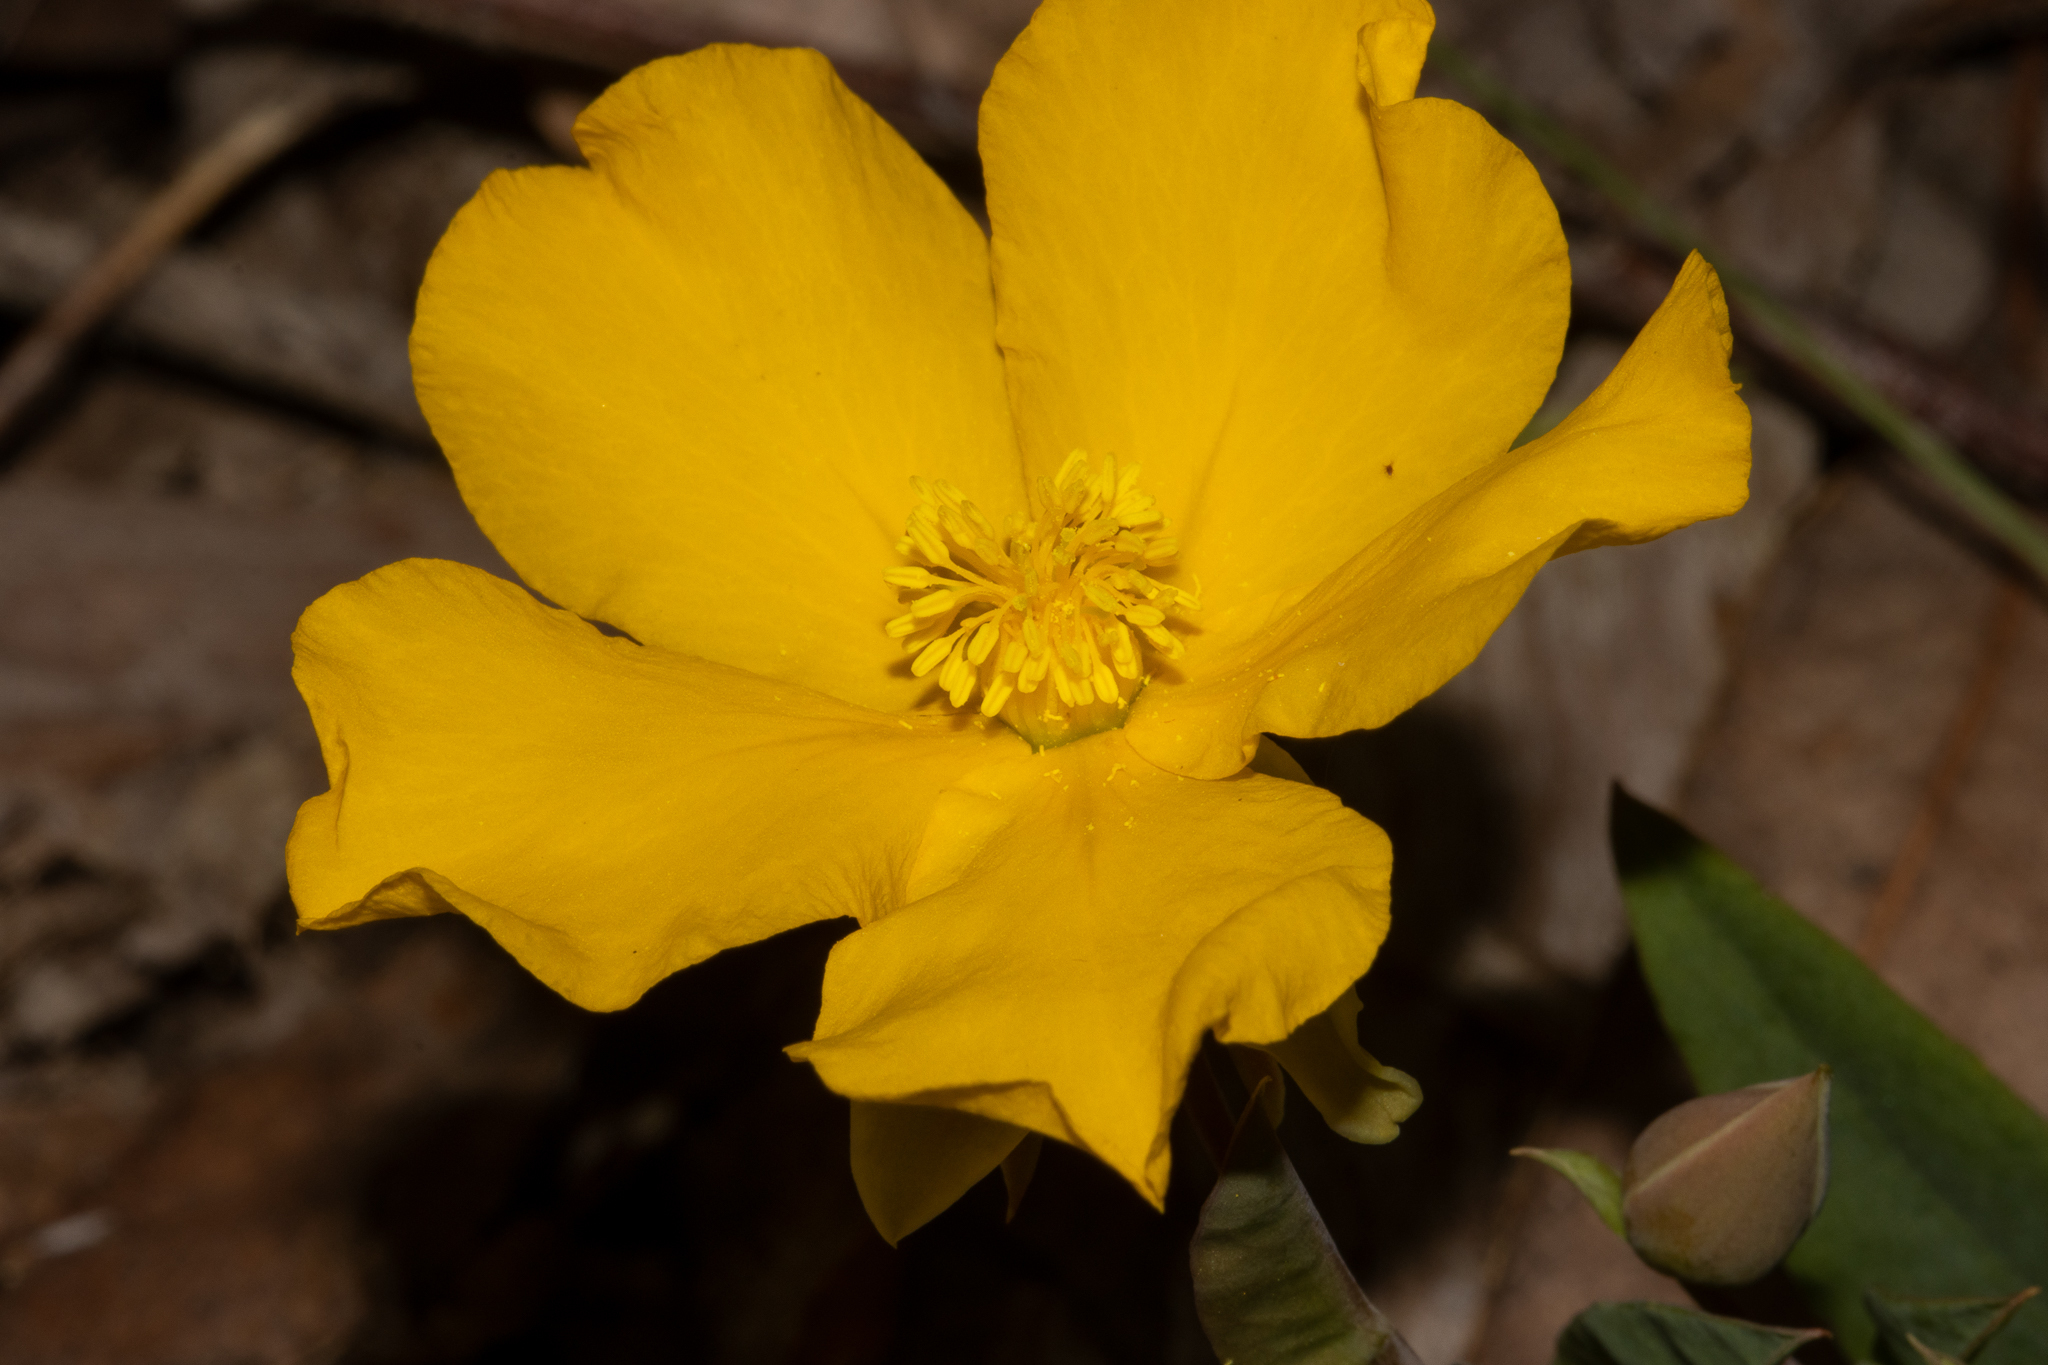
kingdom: Plantae
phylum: Tracheophyta
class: Magnoliopsida
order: Dilleniales
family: Dilleniaceae
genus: Hibbertia
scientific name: Hibbertia amplexicaulis
